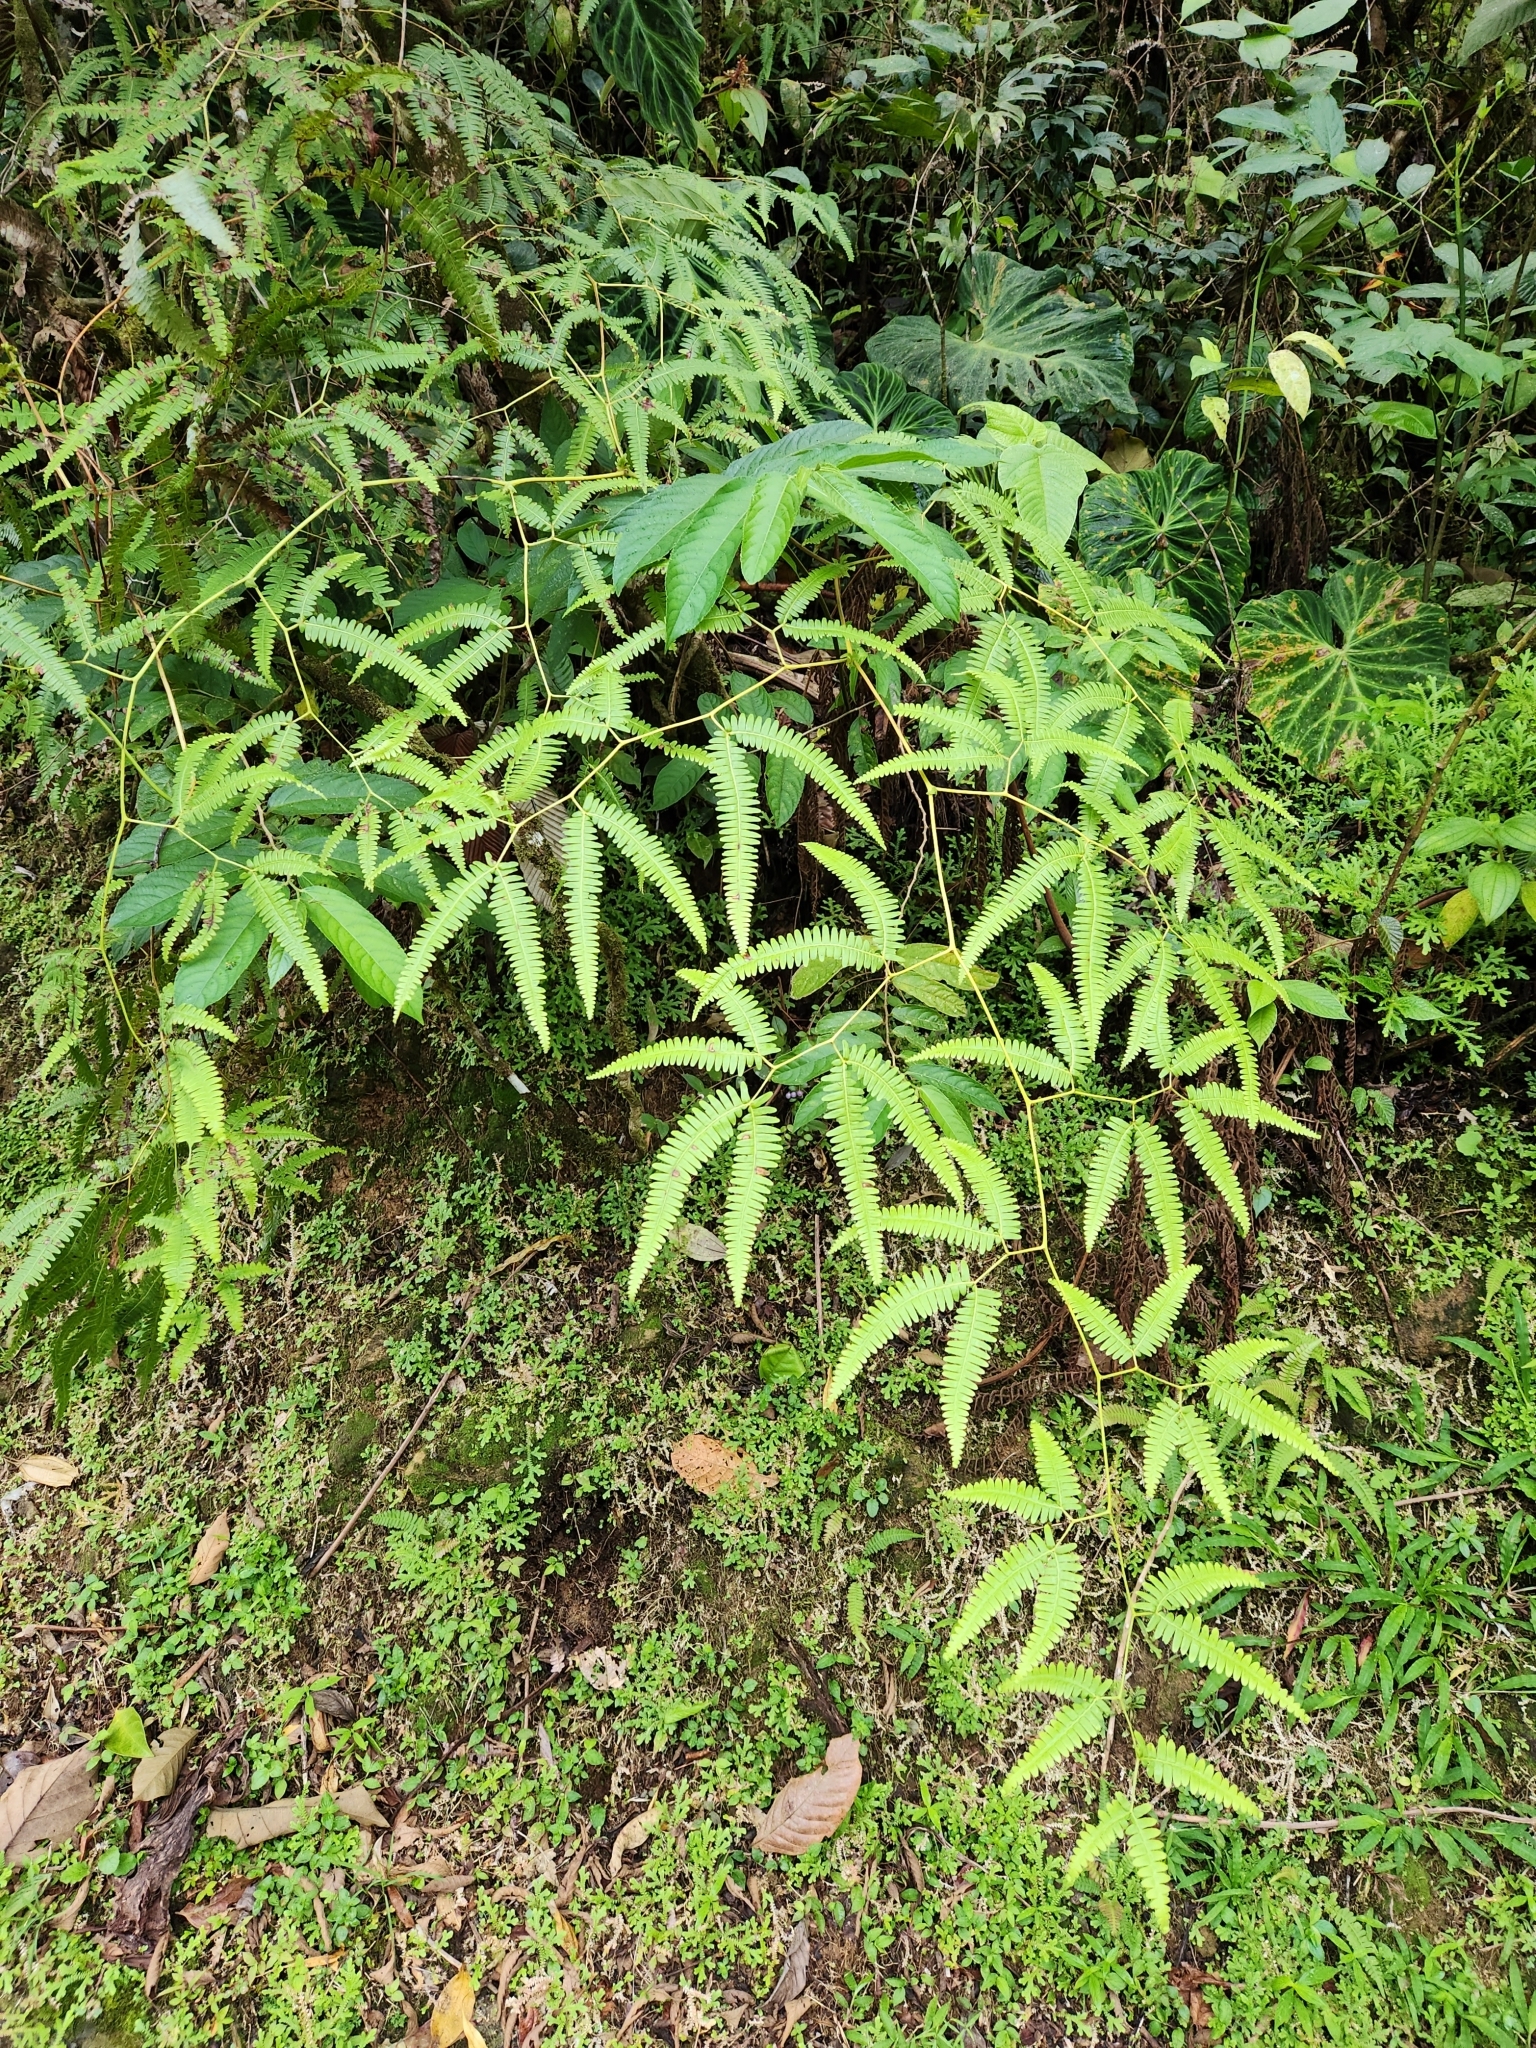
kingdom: Plantae
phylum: Tracheophyta
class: Polypodiopsida
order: Gleicheniales
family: Gleicheniaceae
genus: Gleichenella
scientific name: Gleichenella pectinata
